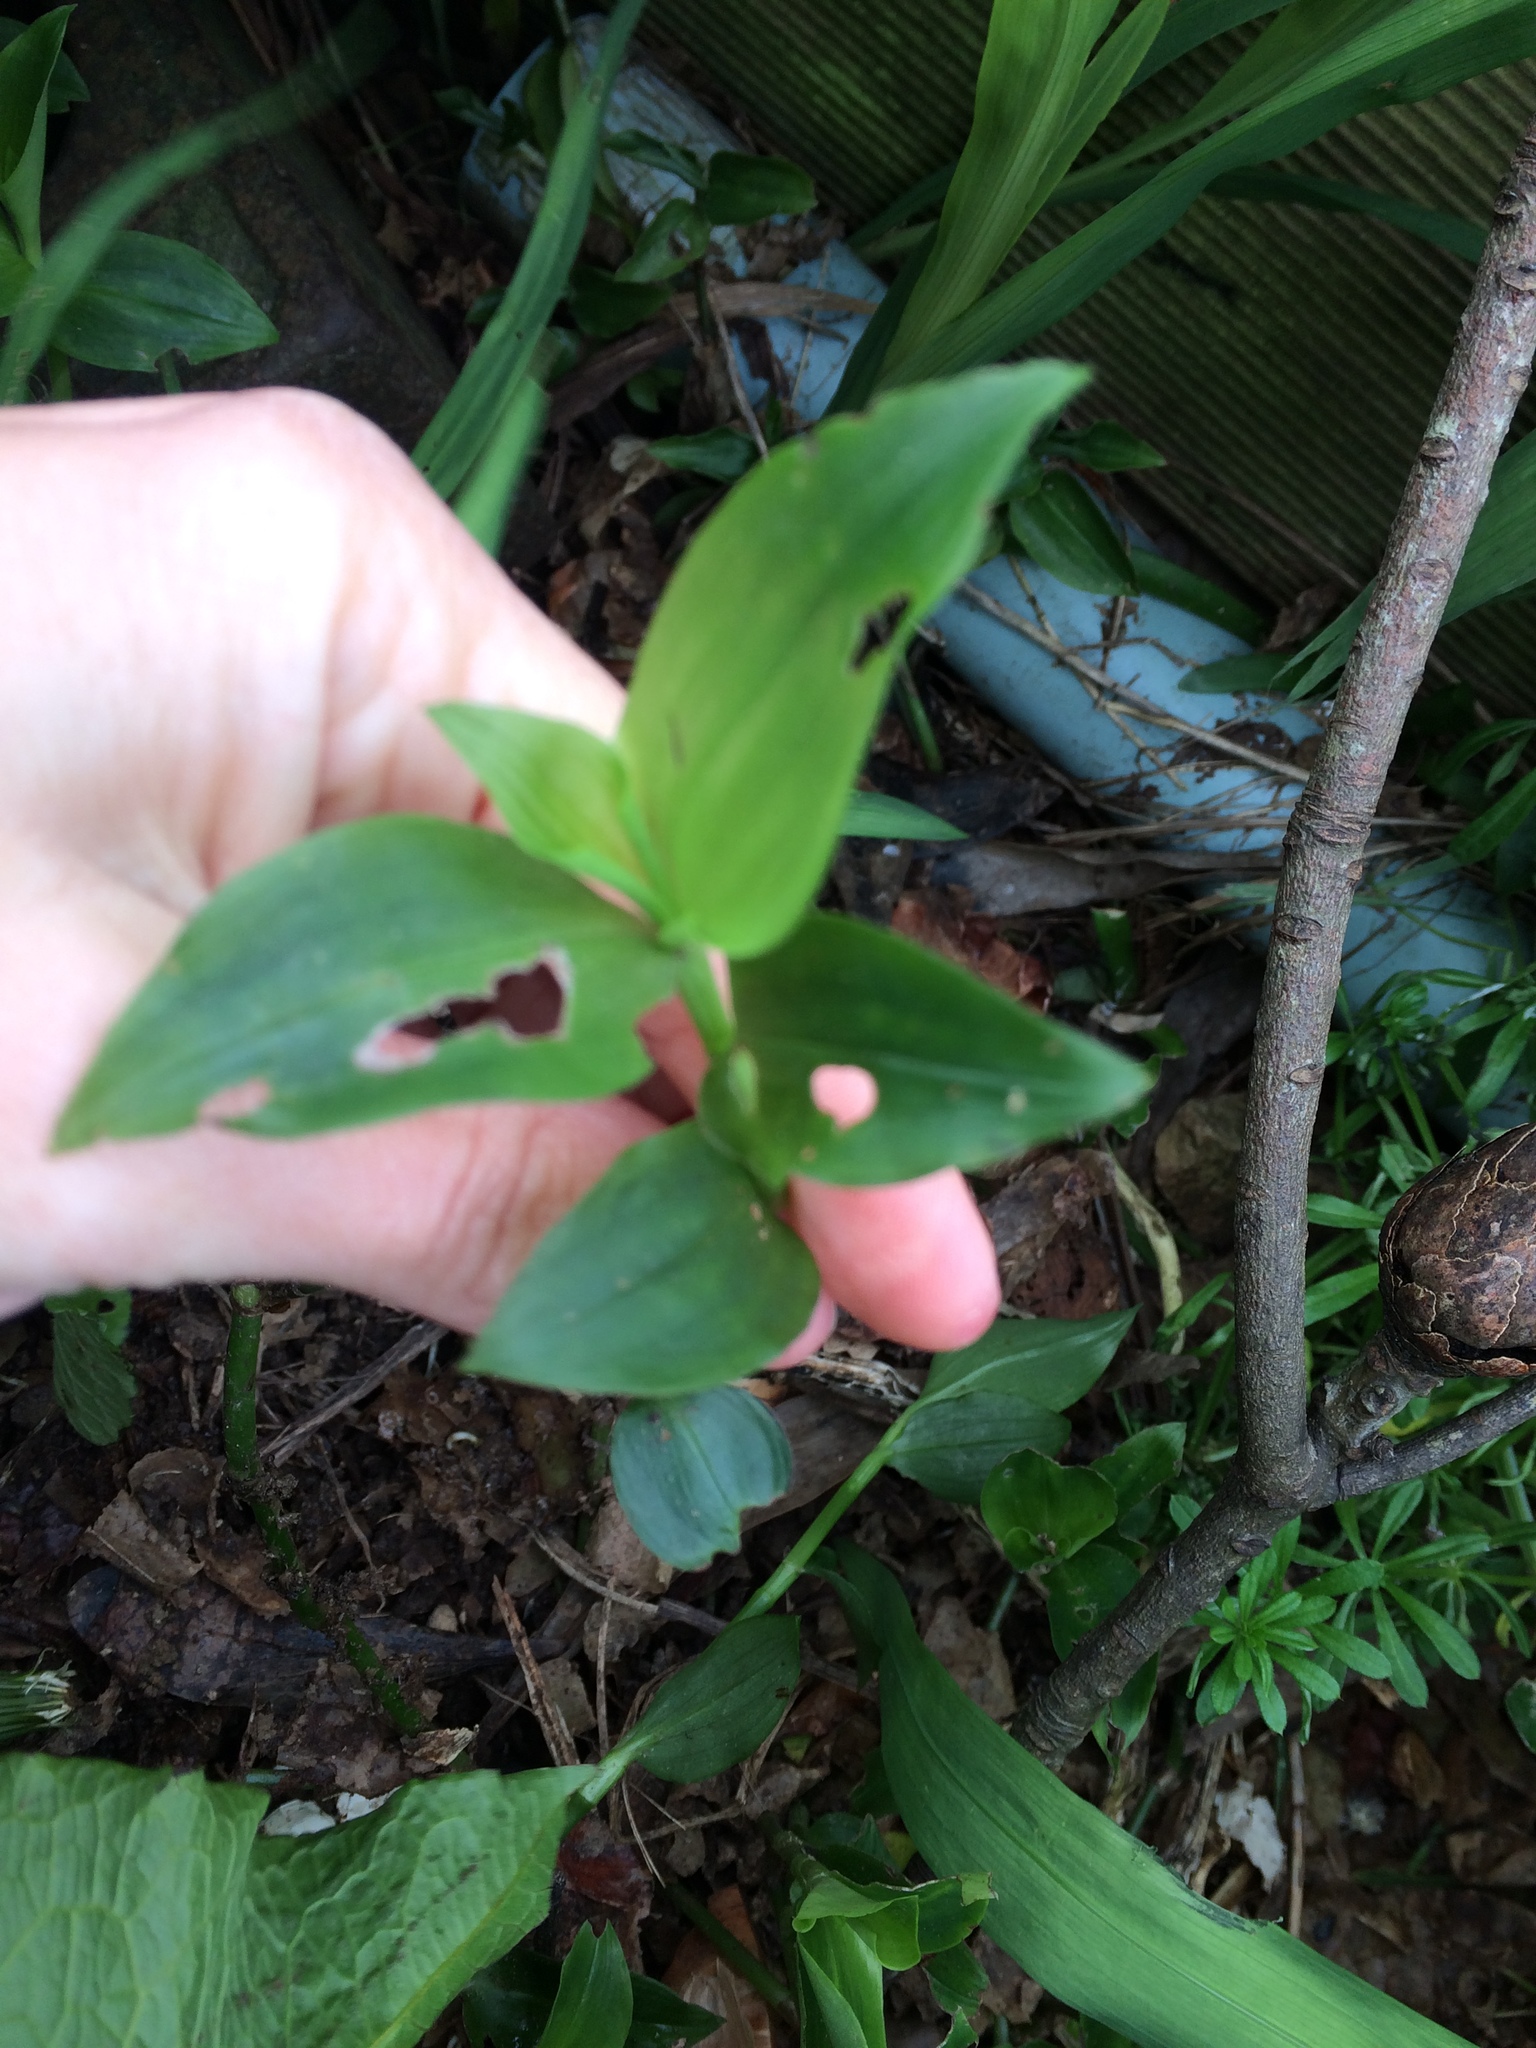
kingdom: Plantae
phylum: Tracheophyta
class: Liliopsida
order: Commelinales
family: Commelinaceae
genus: Tradescantia
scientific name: Tradescantia fluminensis
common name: Wandering-jew
